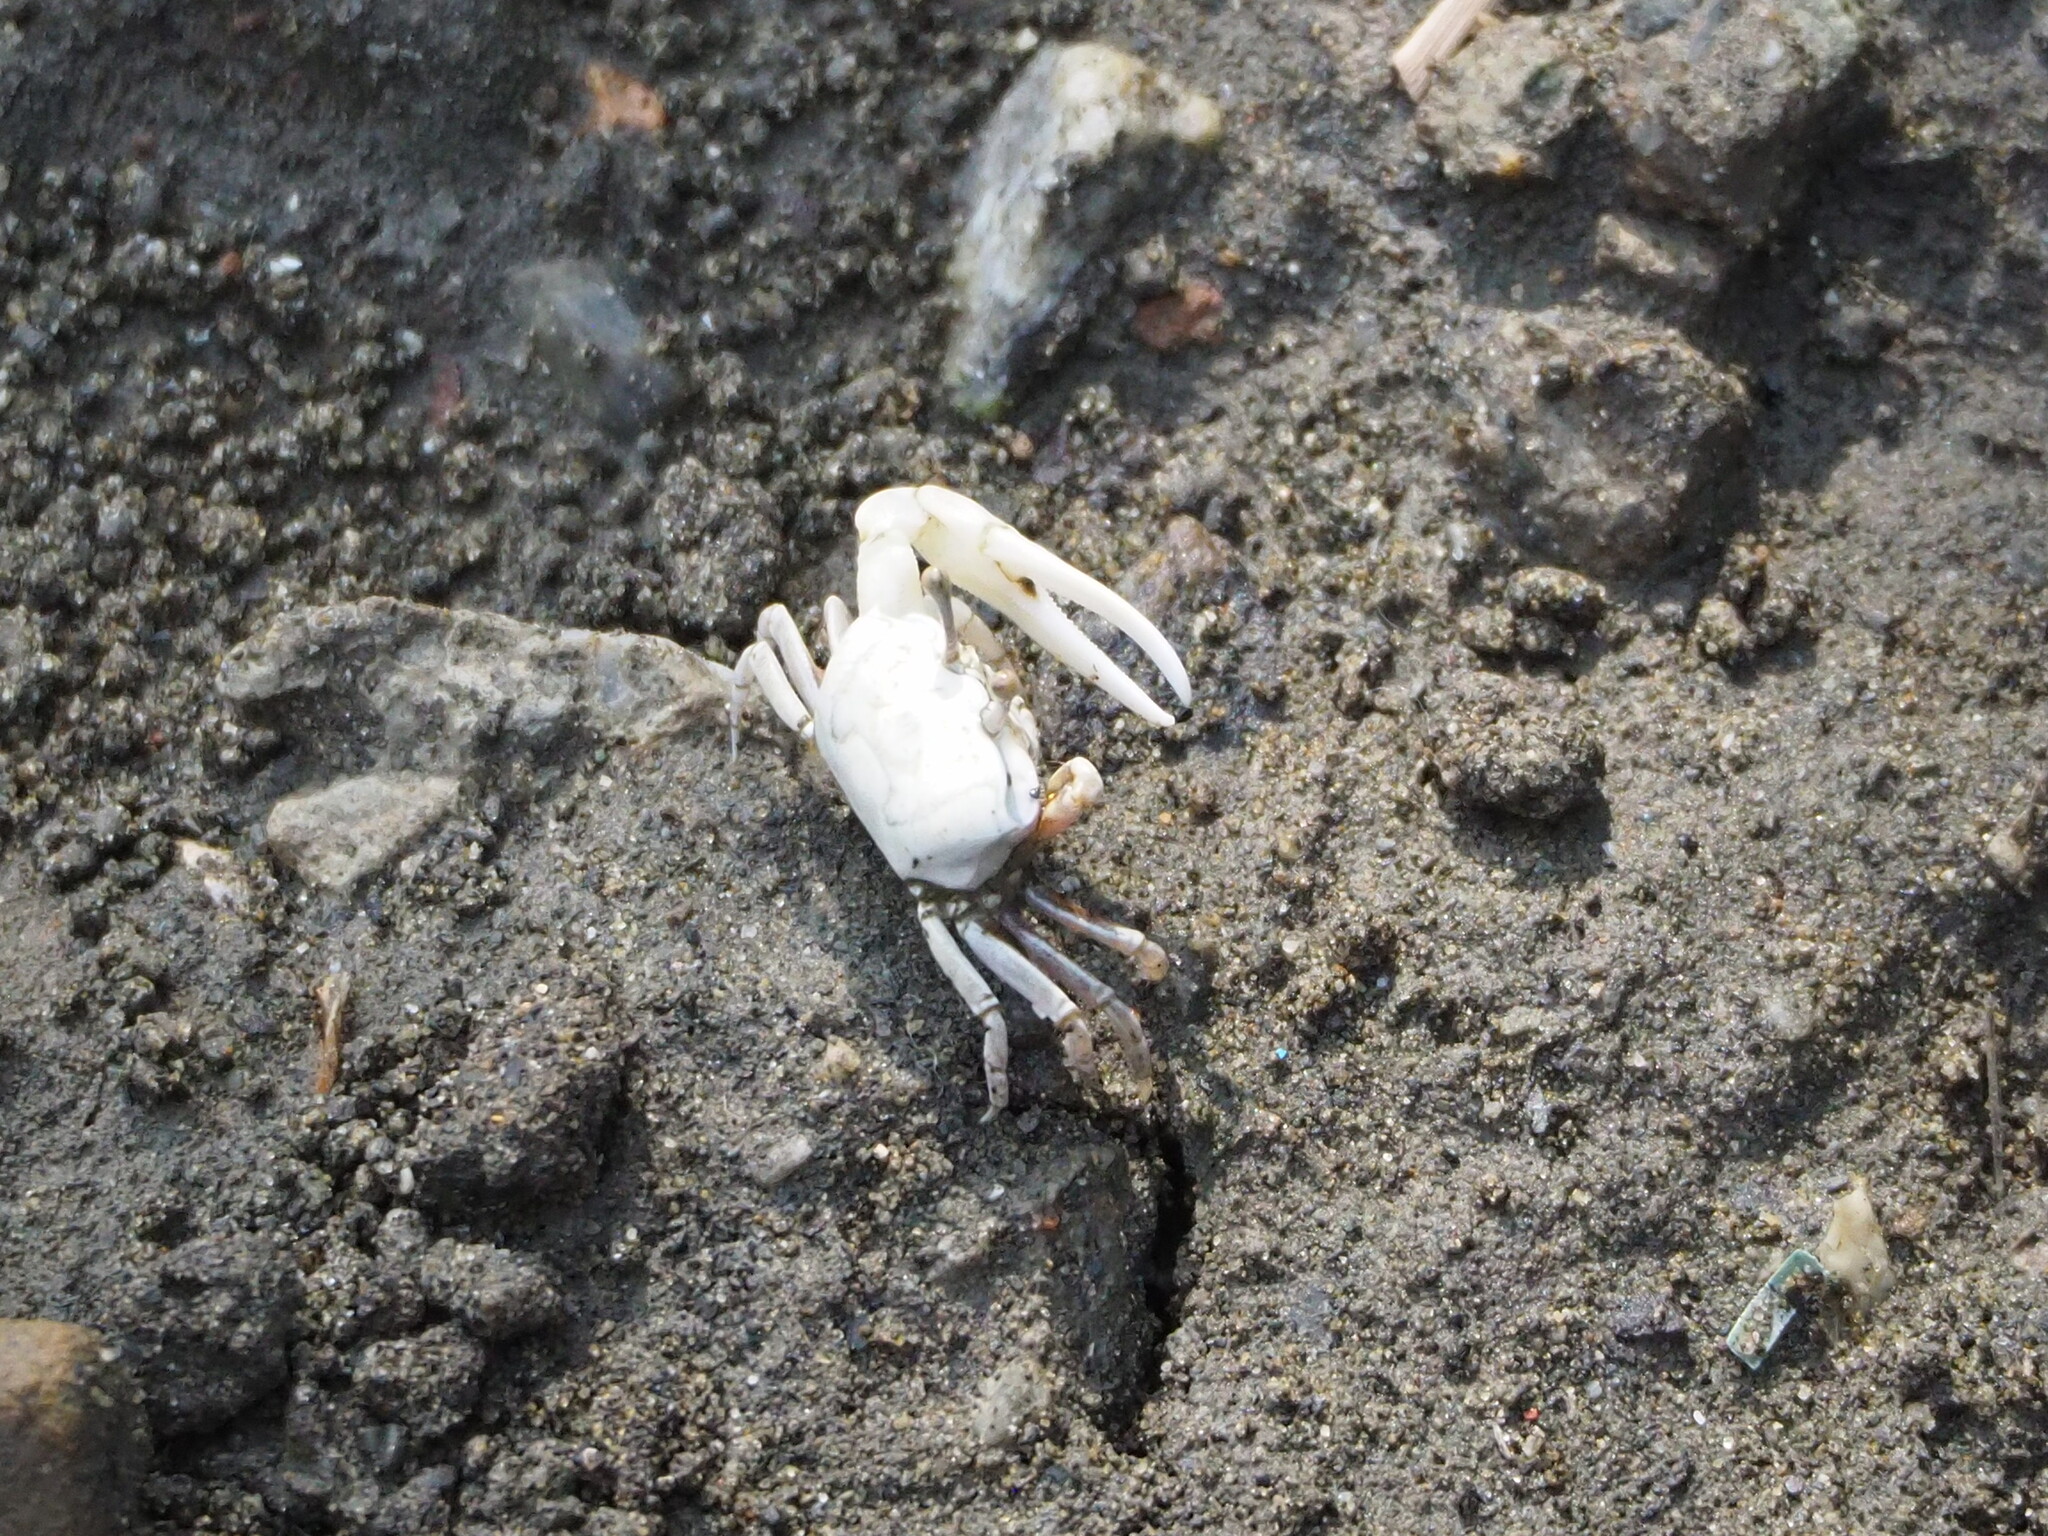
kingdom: Animalia
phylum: Arthropoda
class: Malacostraca
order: Decapoda
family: Ocypodidae
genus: Austruca
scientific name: Austruca lactea
